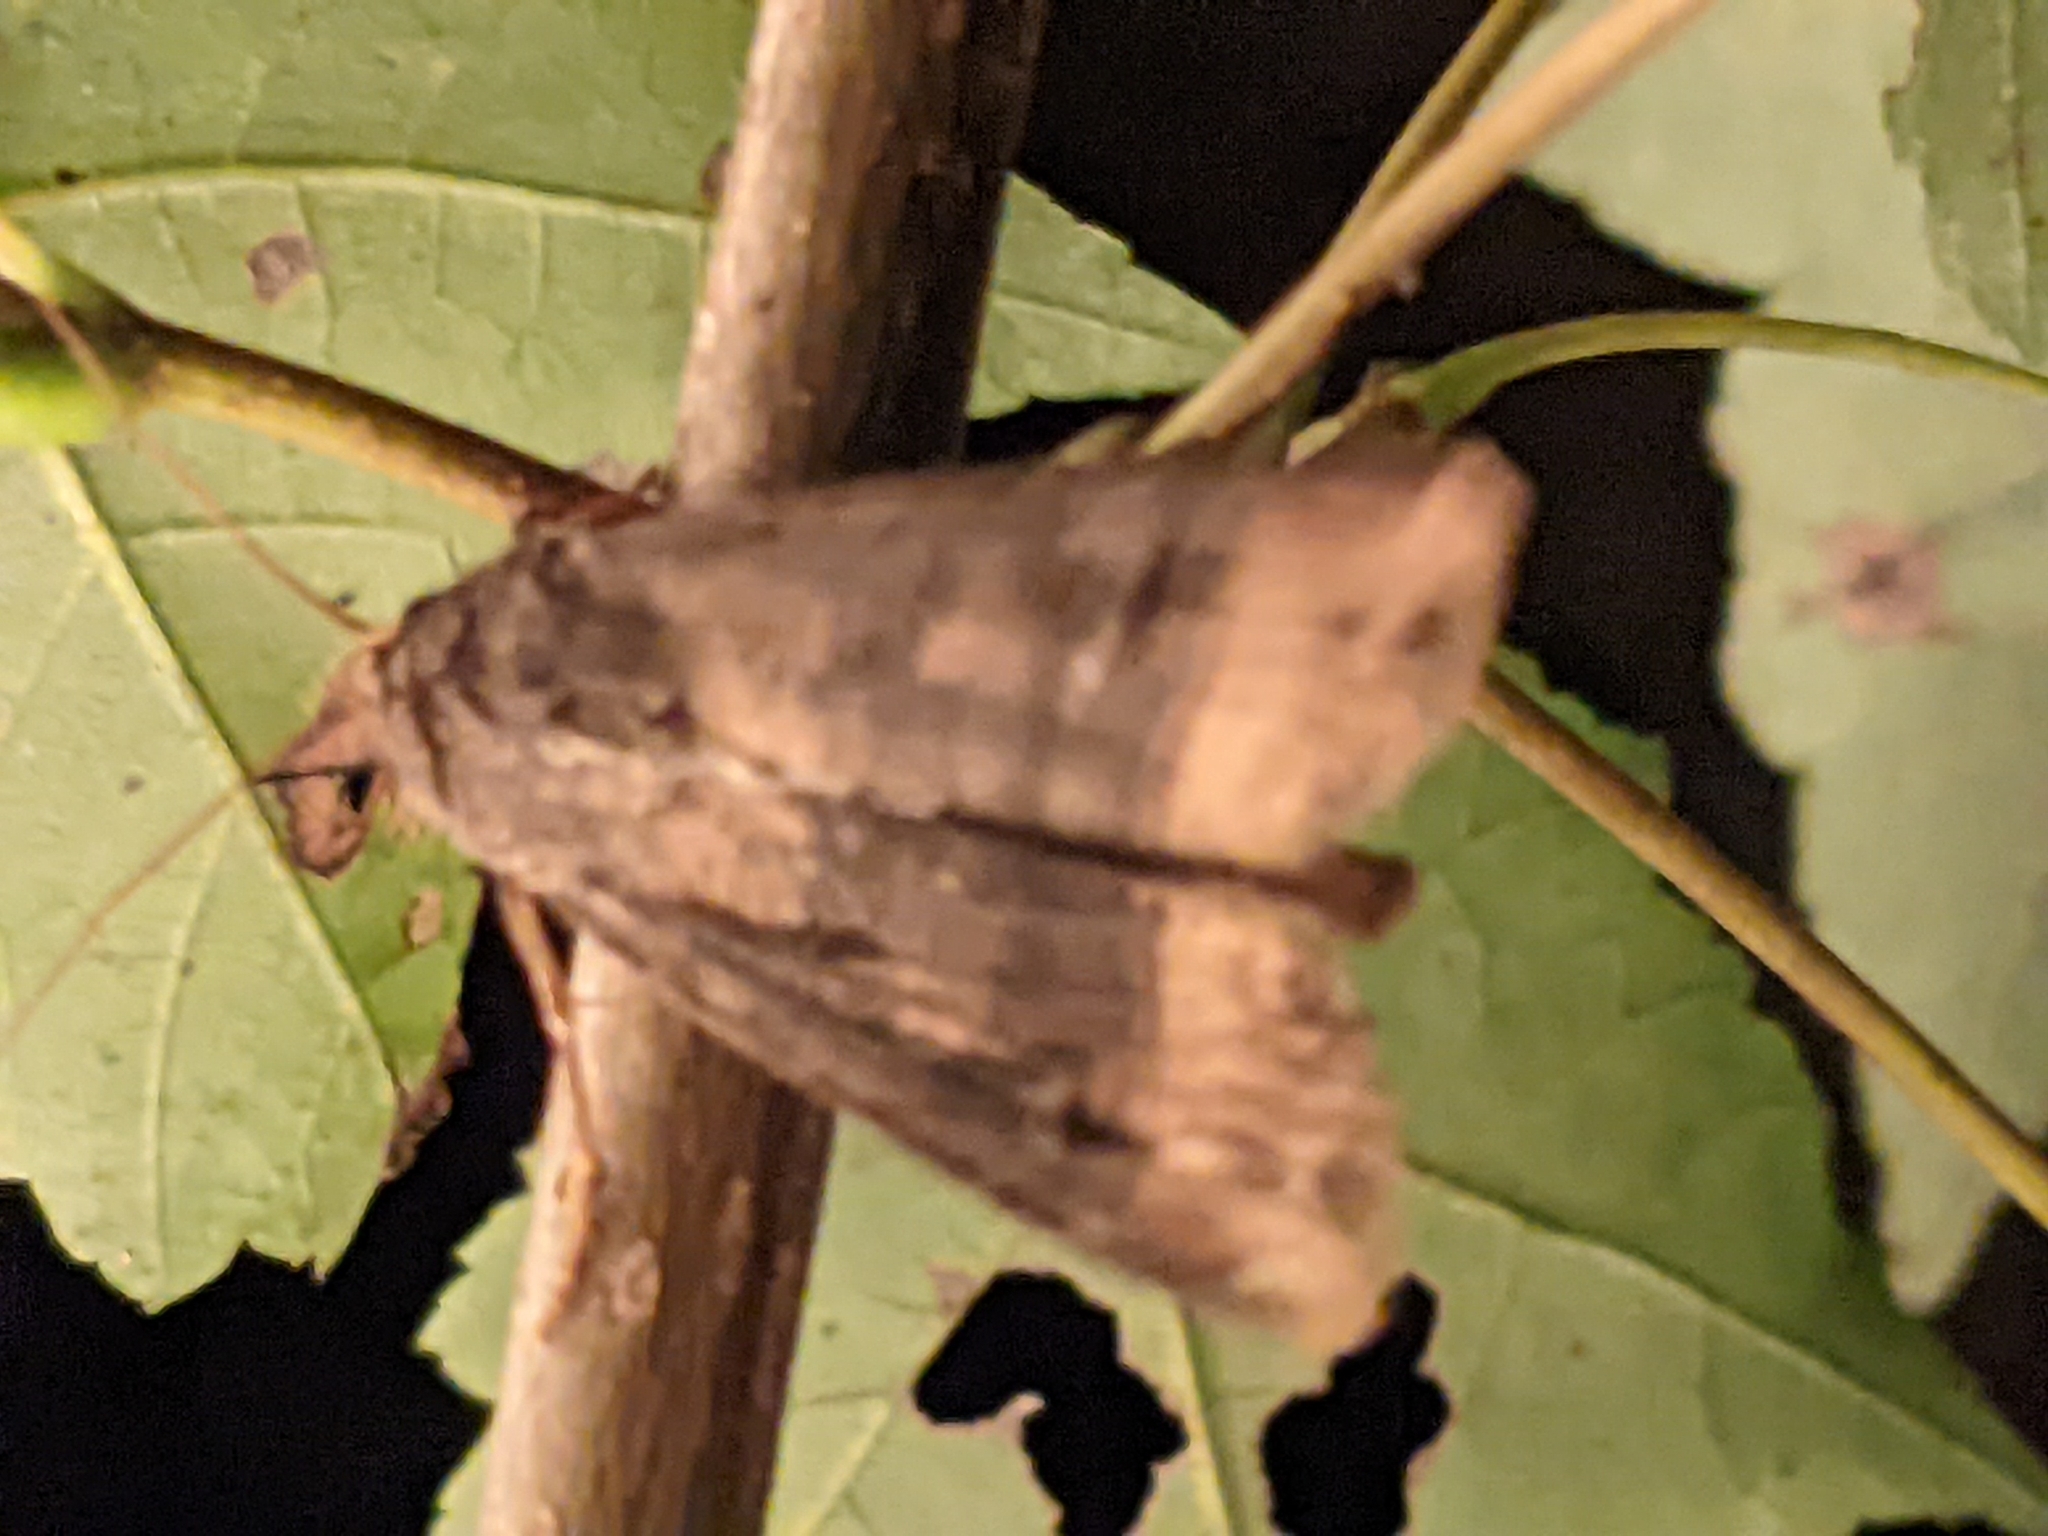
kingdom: Animalia
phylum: Arthropoda
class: Insecta
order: Lepidoptera
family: Noctuidae
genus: Agrotis
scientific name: Agrotis ipsilon
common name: Dark sword-grass
